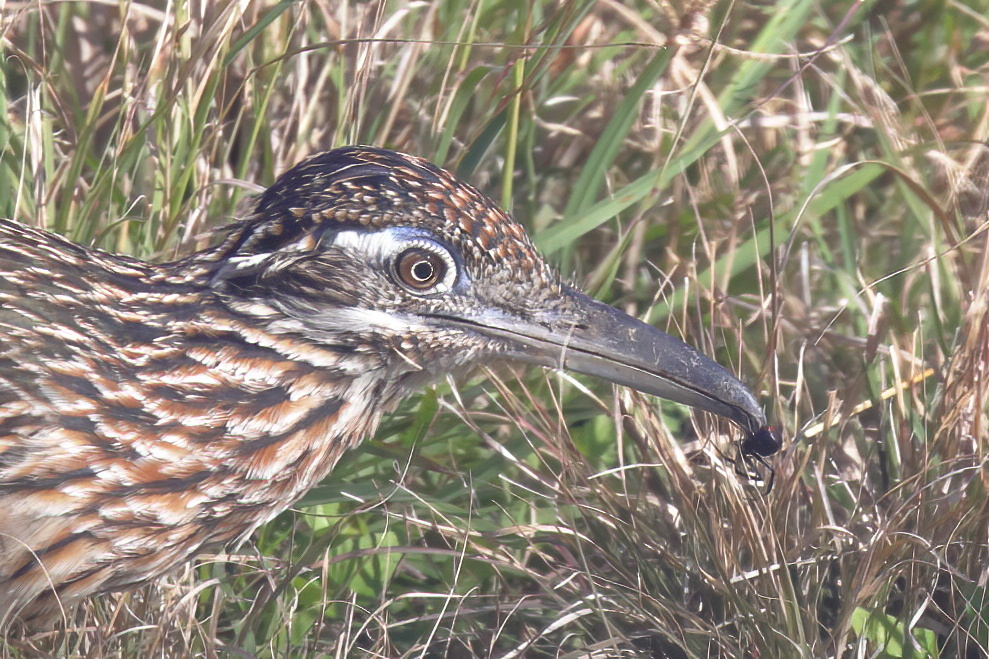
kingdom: Animalia
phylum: Chordata
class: Aves
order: Cuculiformes
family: Cuculidae
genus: Geococcyx
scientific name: Geococcyx californianus
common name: Greater roadrunner
